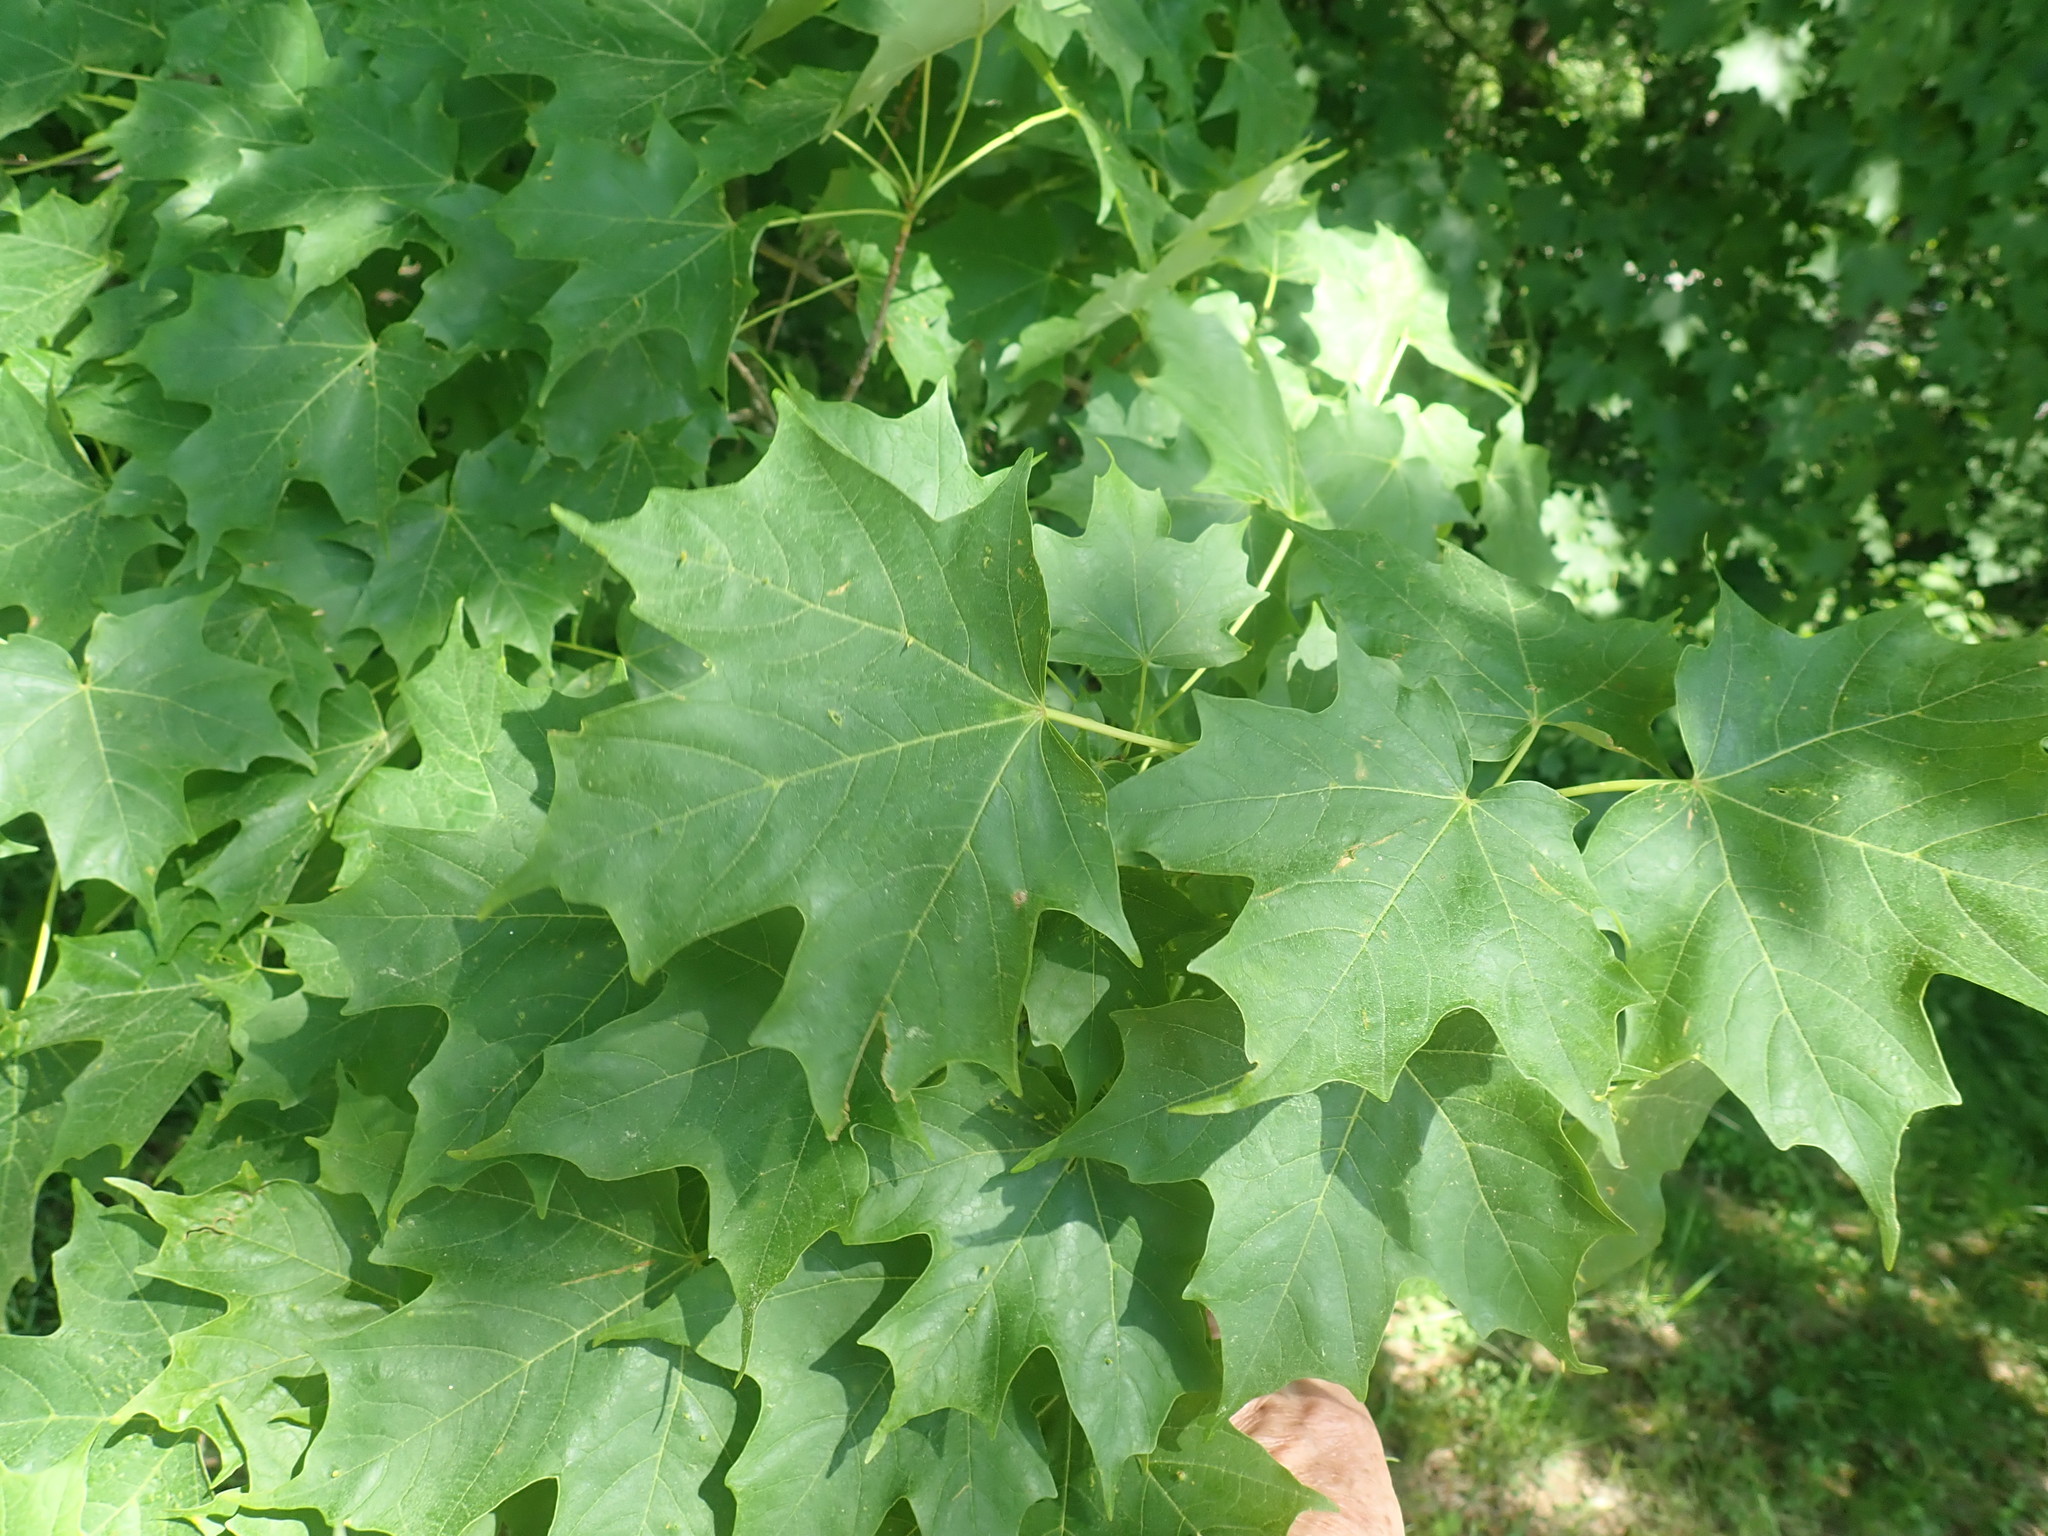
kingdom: Plantae
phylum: Tracheophyta
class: Magnoliopsida
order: Sapindales
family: Sapindaceae
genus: Acer
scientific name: Acer saccharum
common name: Sugar maple
